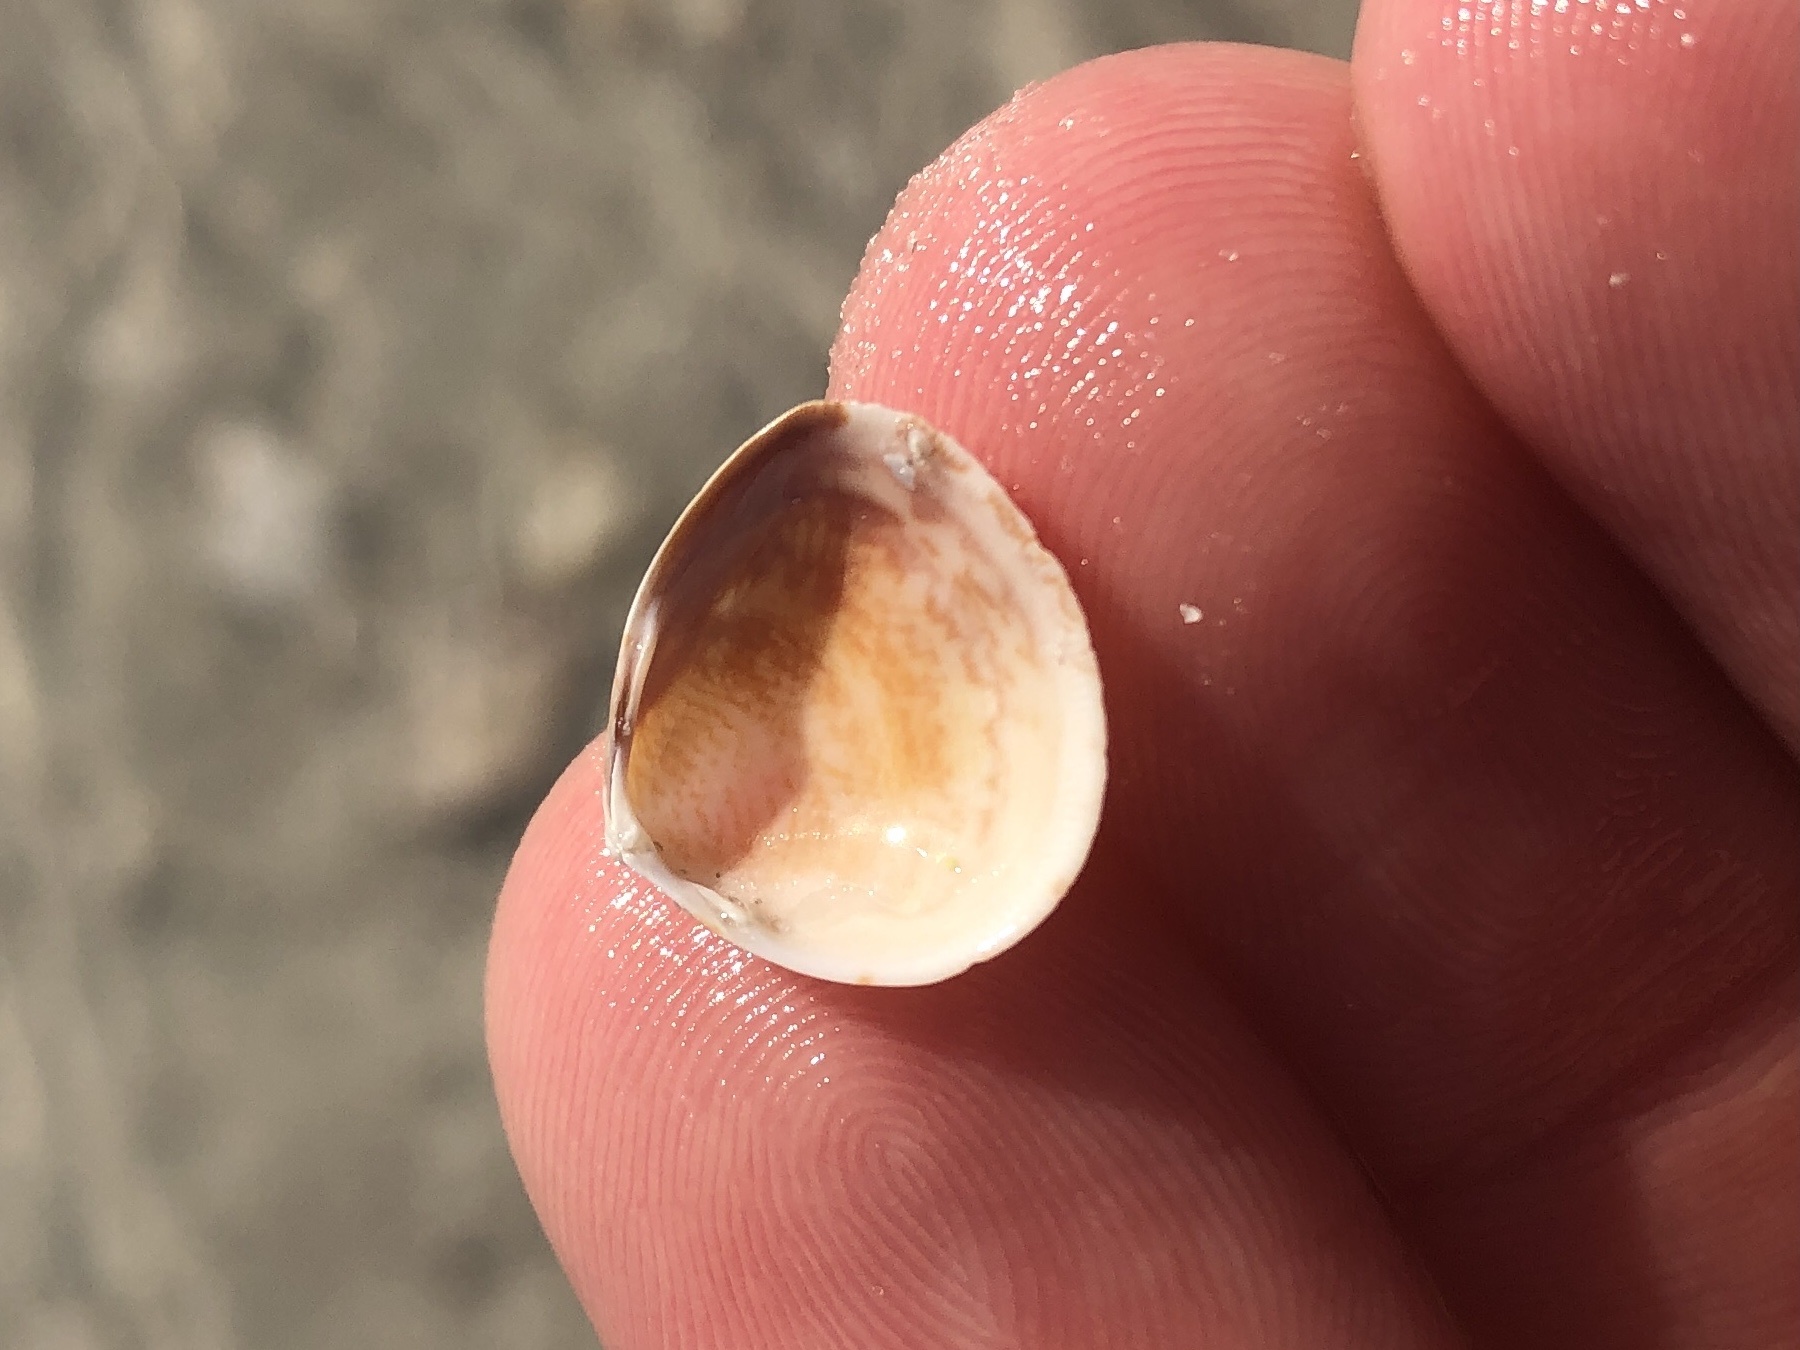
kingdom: Animalia
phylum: Mollusca
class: Bivalvia
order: Cardiida
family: Cardiidae
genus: Laevicardium
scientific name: Laevicardium mortoni
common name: Morton eggcockle
